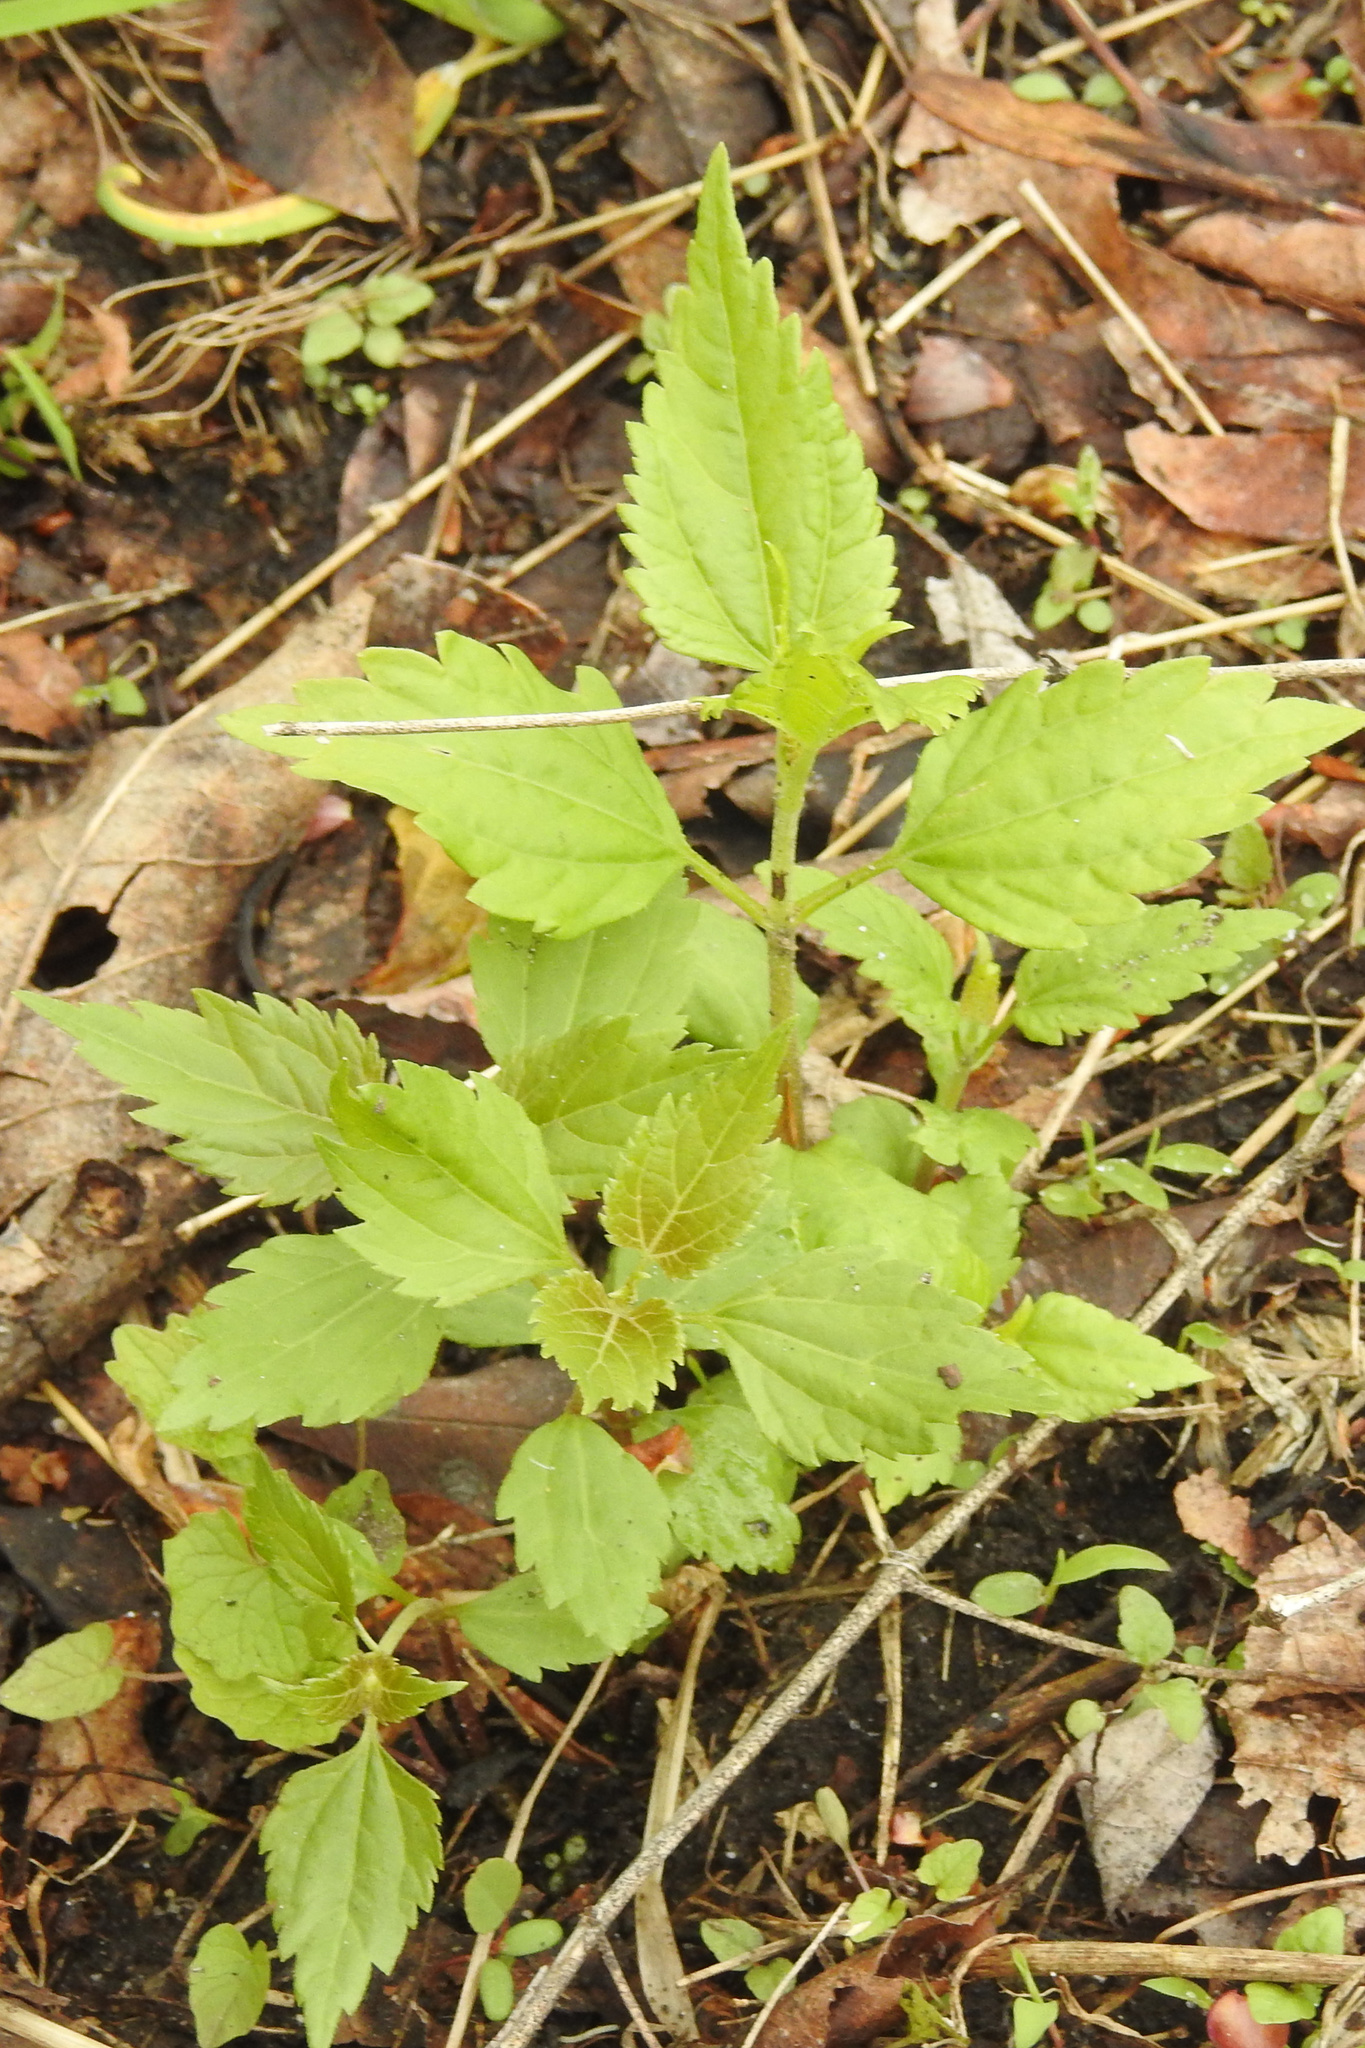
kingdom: Plantae
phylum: Tracheophyta
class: Magnoliopsida
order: Asterales
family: Asteraceae
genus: Ageratina
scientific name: Ageratina altissima
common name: White snakeroot
